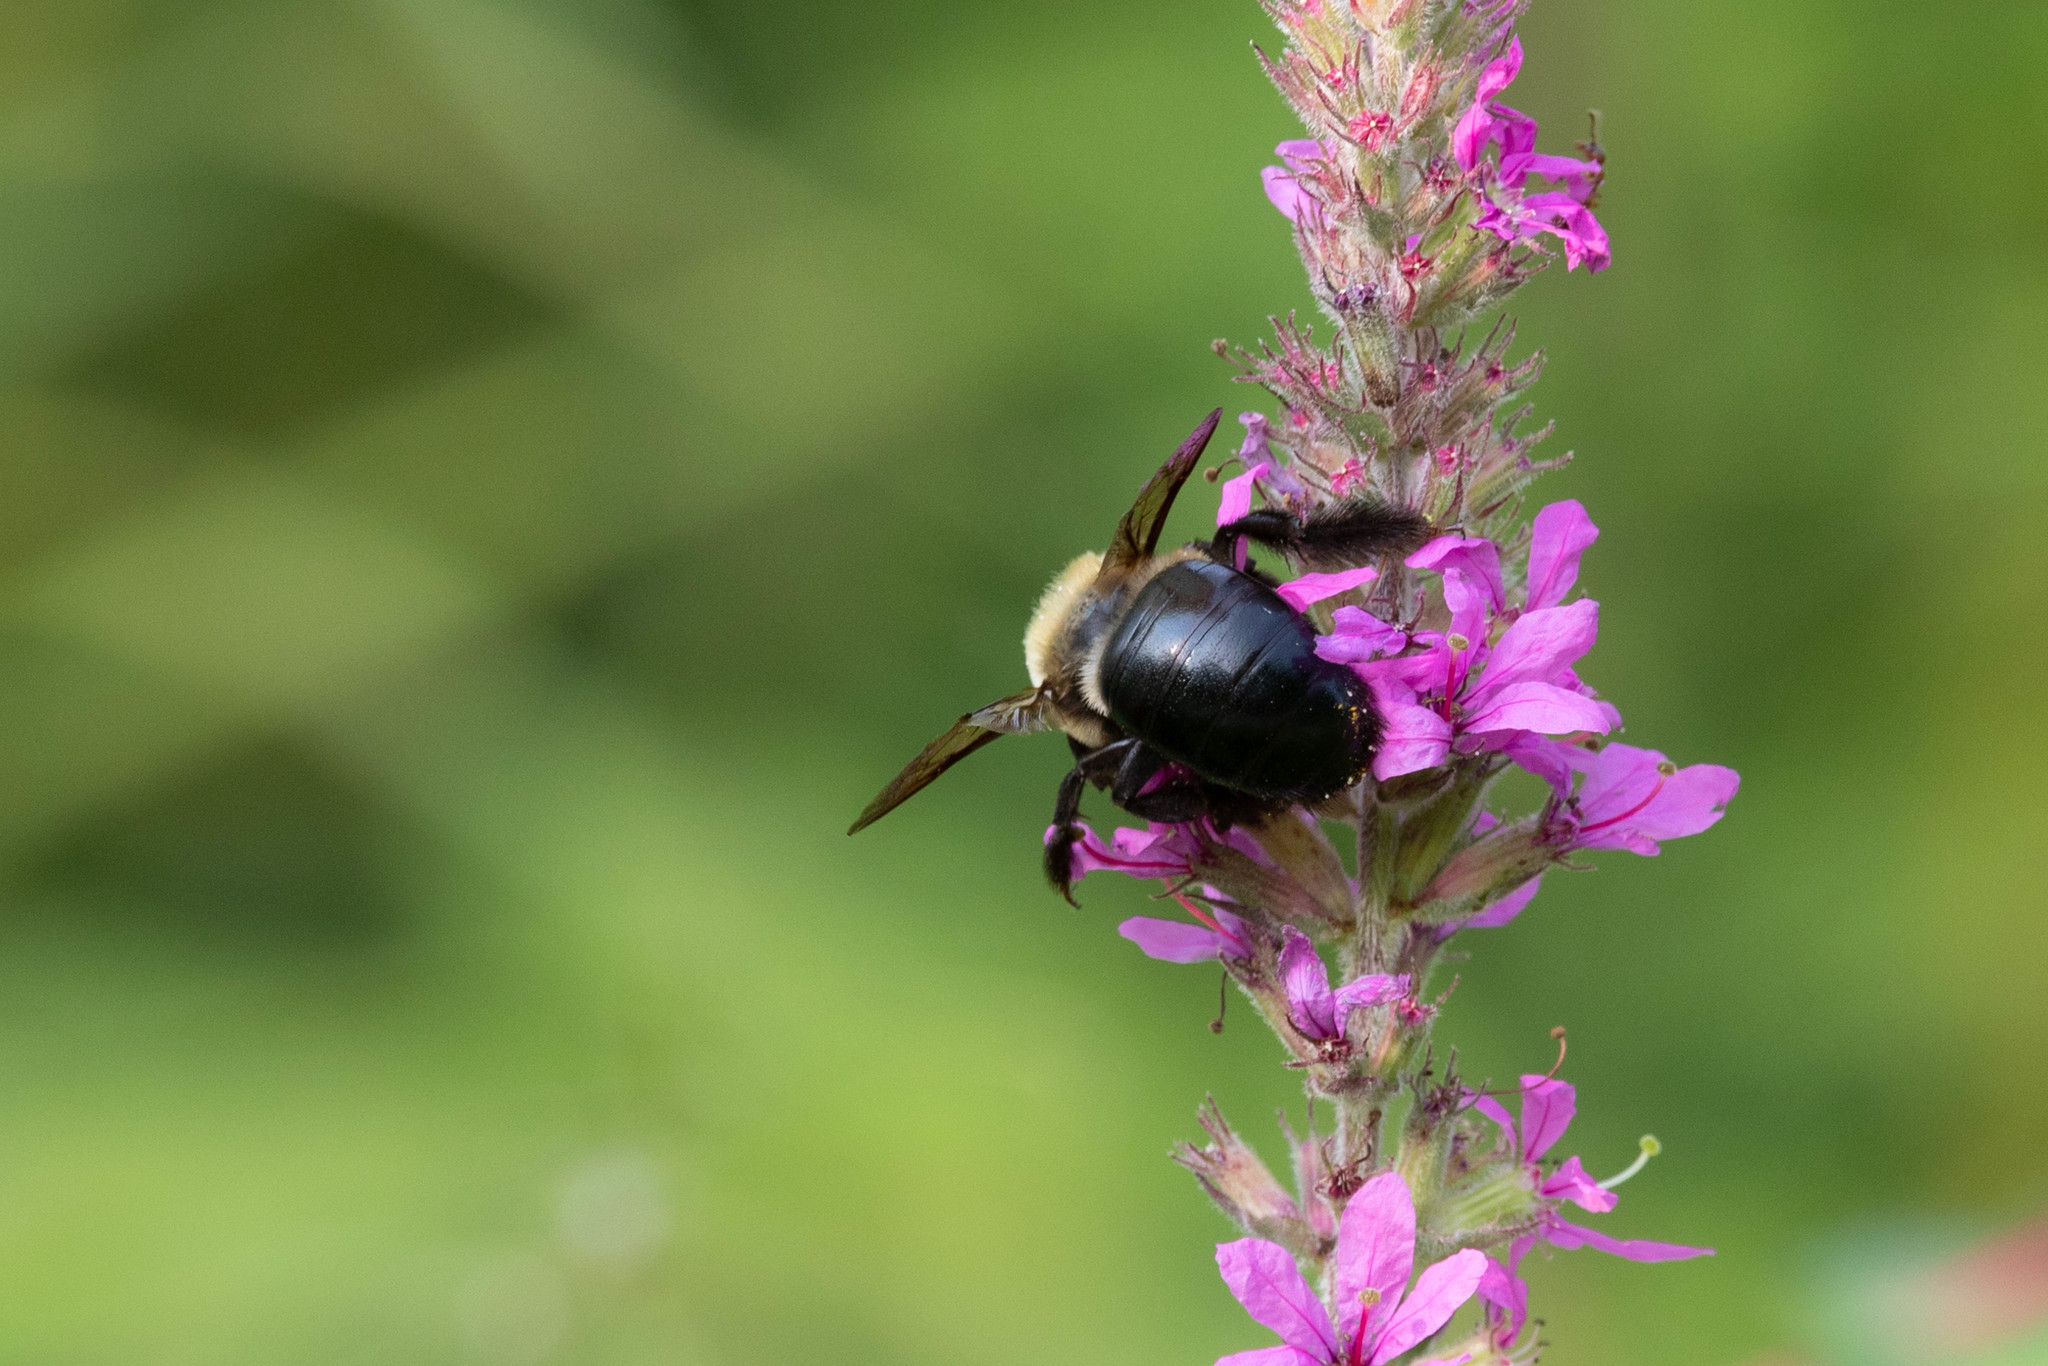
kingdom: Animalia
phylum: Arthropoda
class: Insecta
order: Hymenoptera
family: Apidae
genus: Xylocopa
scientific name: Xylocopa virginica
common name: Carpenter bee
